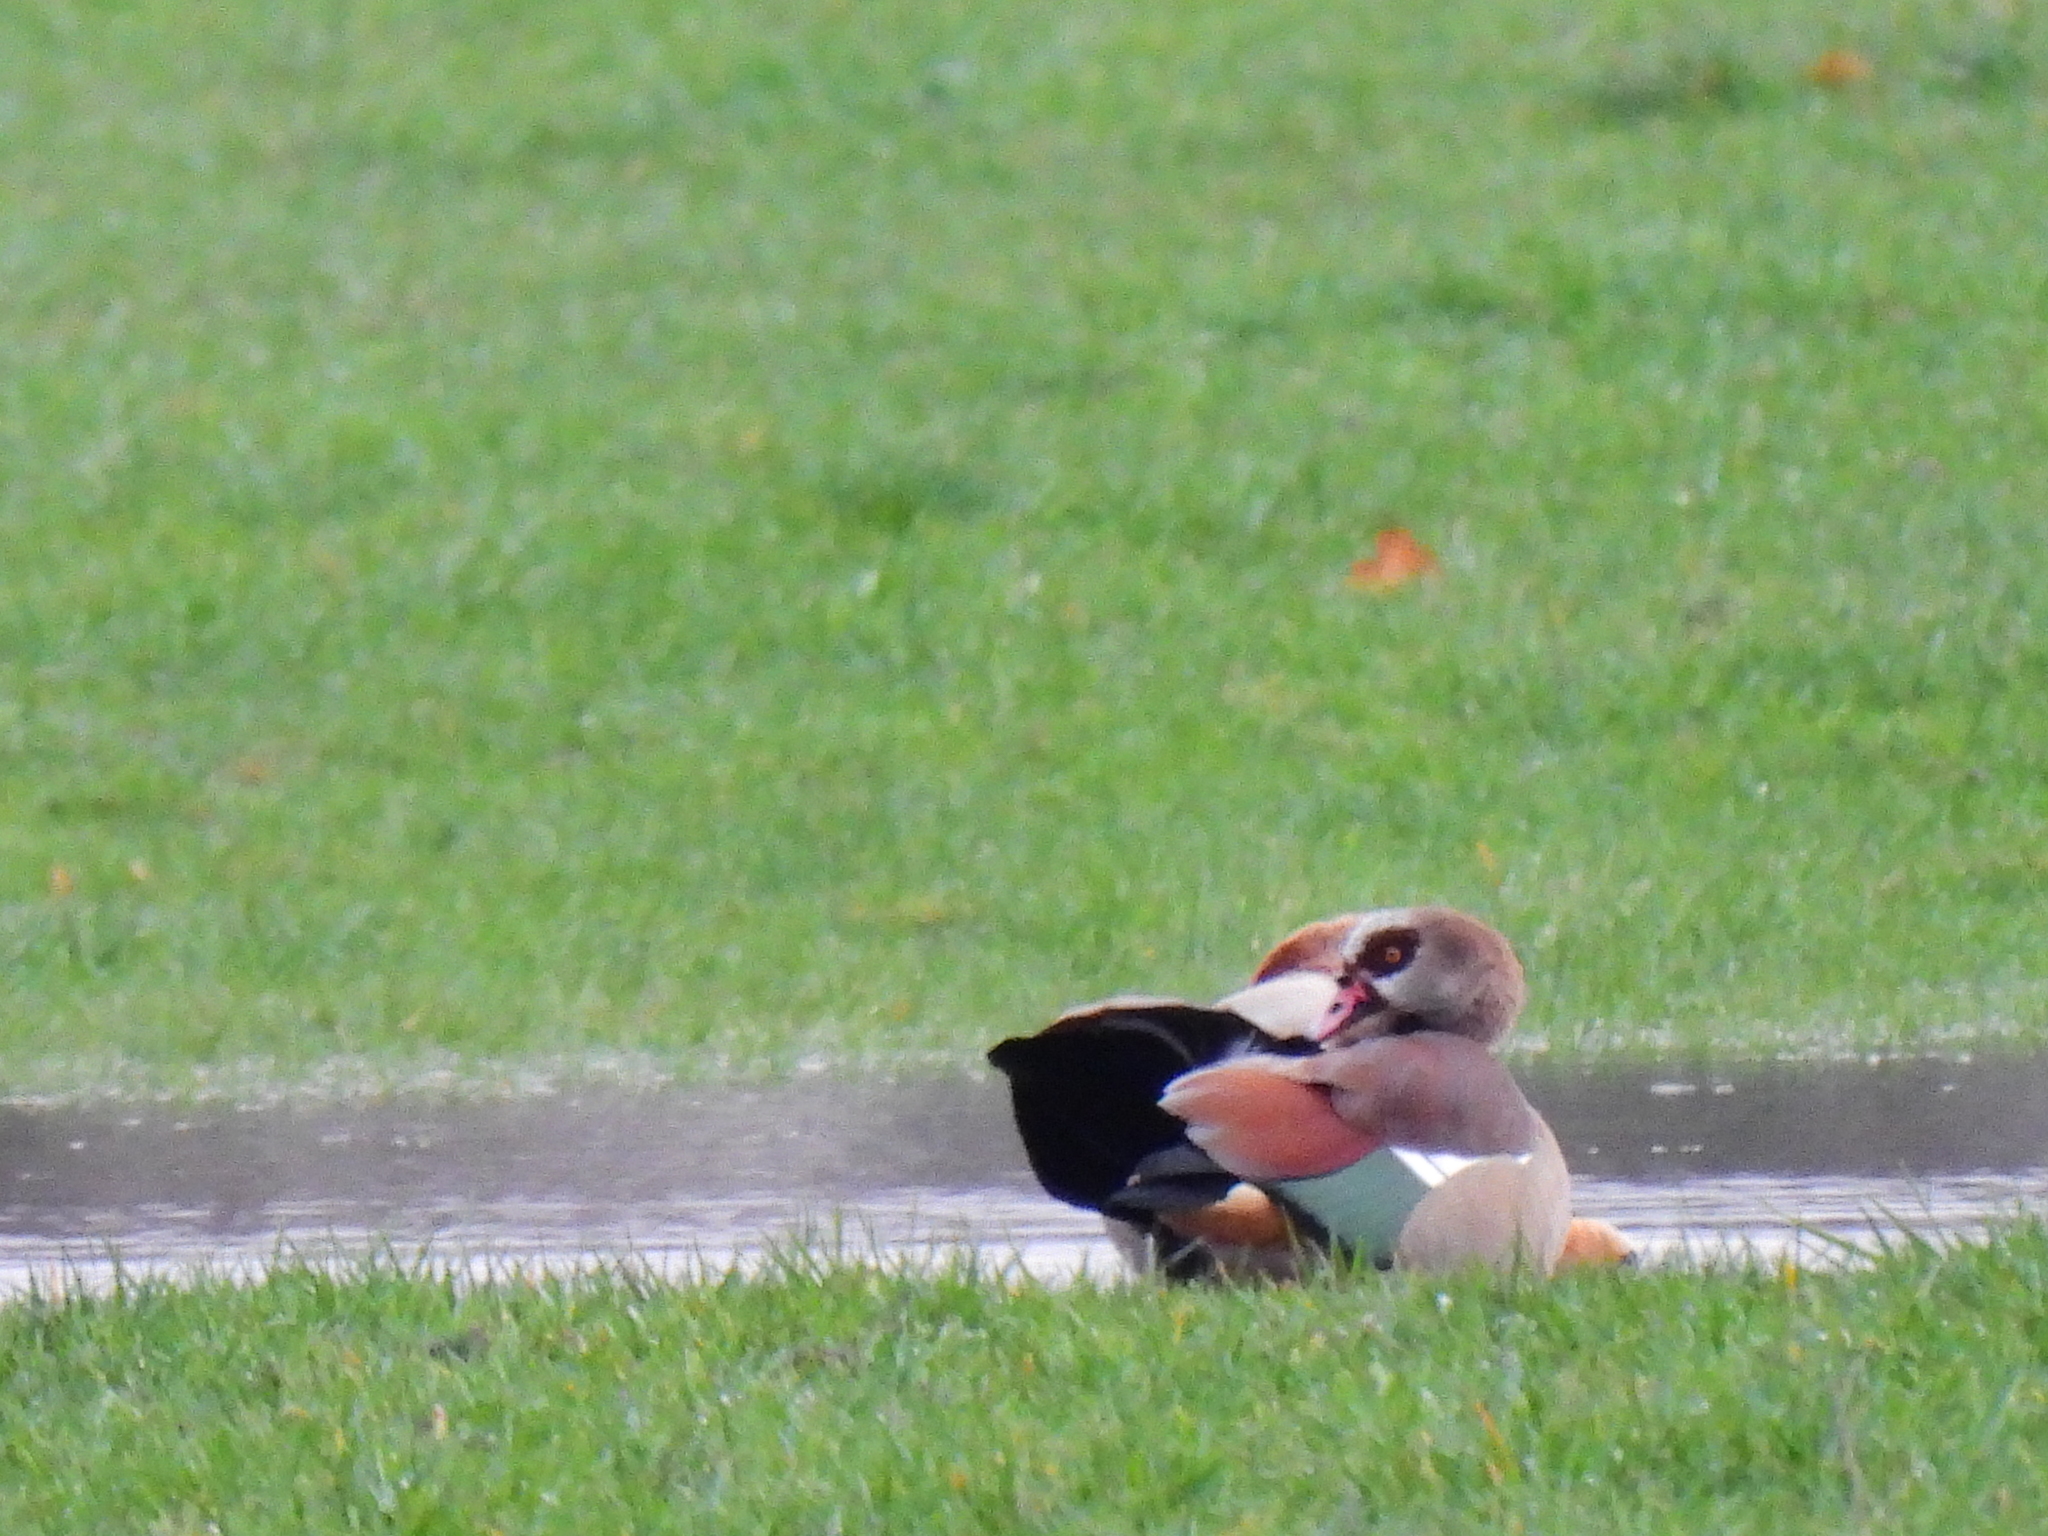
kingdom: Animalia
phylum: Chordata
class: Aves
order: Anseriformes
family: Anatidae
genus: Alopochen
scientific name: Alopochen aegyptiaca
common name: Egyptian goose
